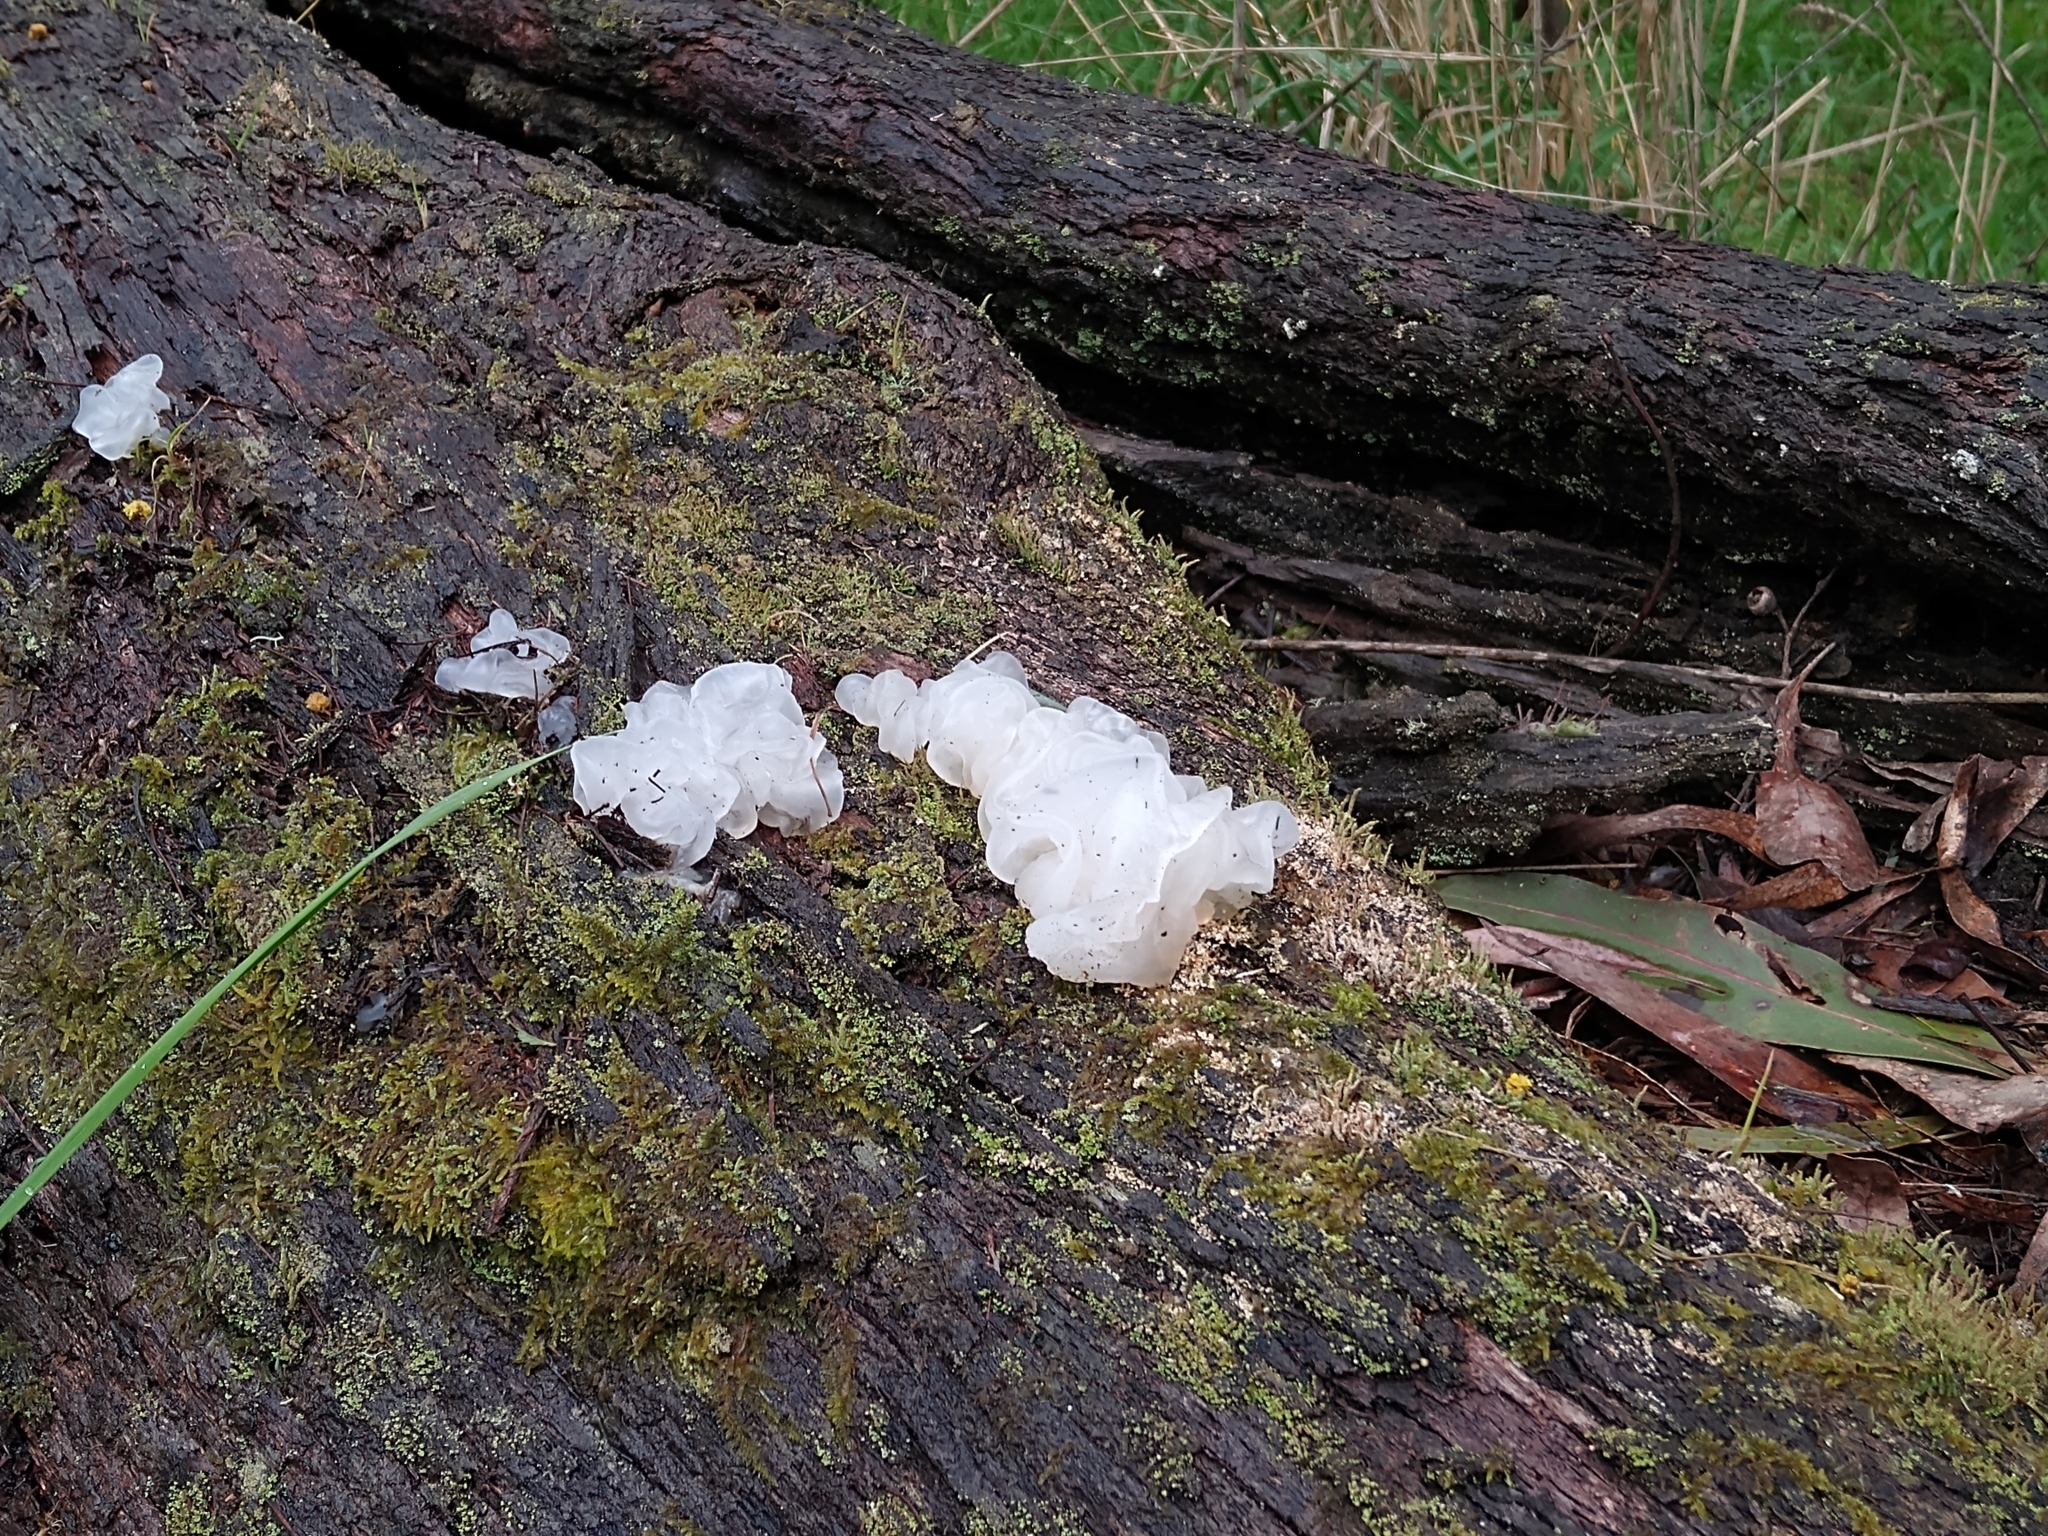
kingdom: Fungi
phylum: Basidiomycota
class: Tremellomycetes
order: Tremellales
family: Tremellaceae
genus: Tremella
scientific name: Tremella fuciformis
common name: Snow fungus
